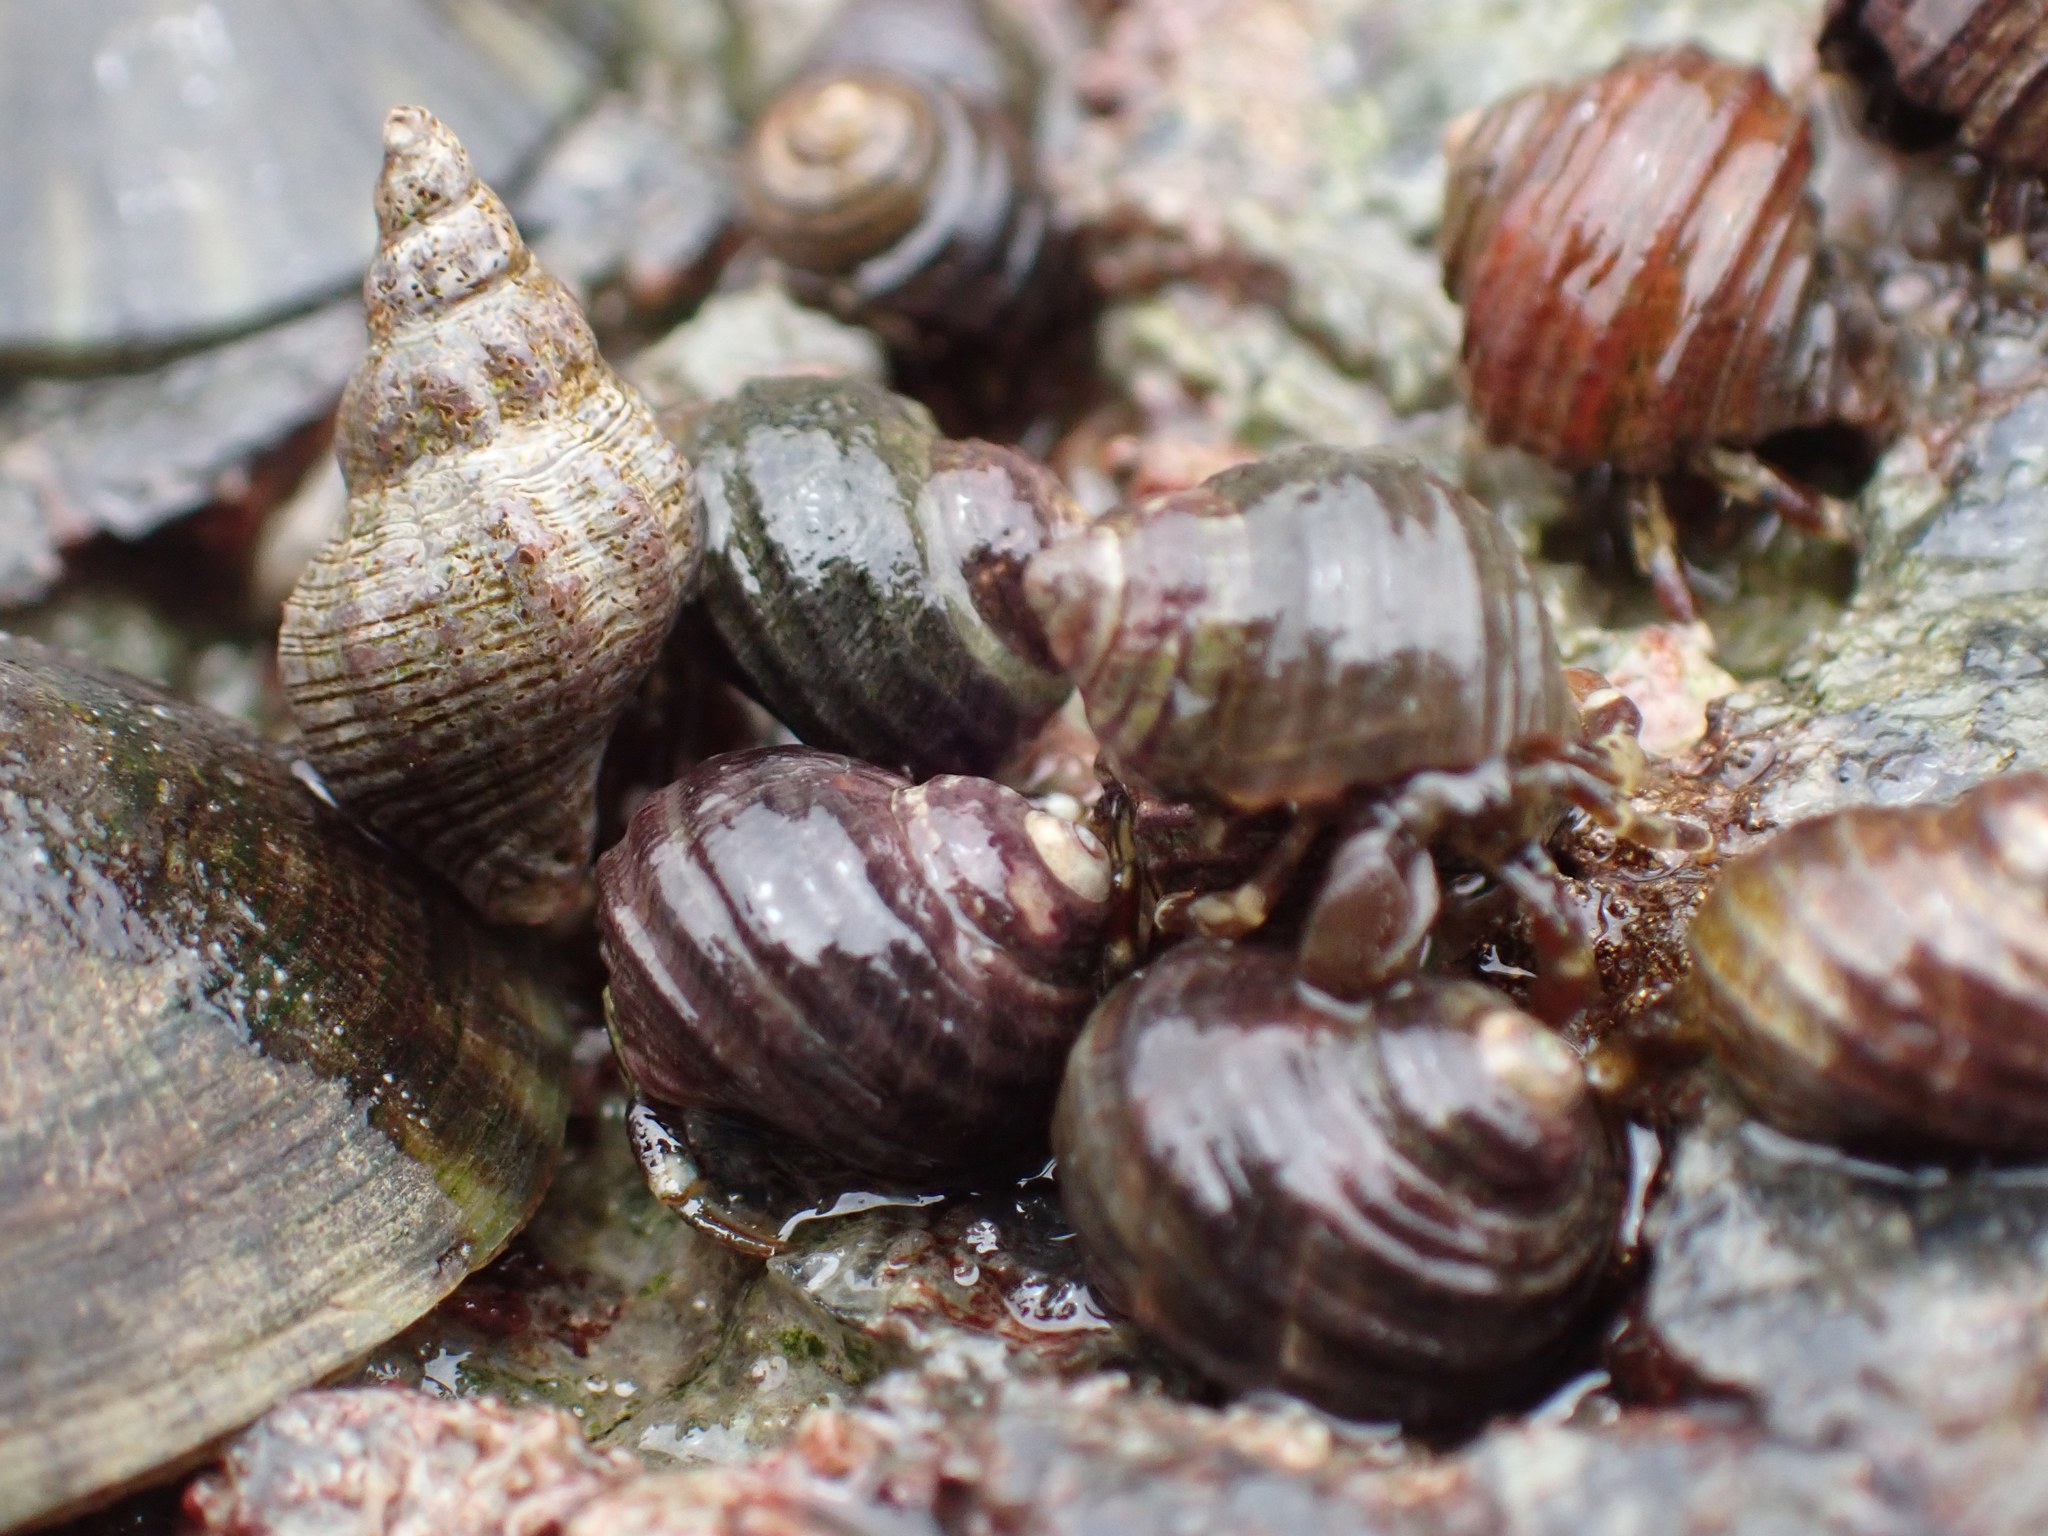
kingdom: Animalia
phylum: Mollusca
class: Gastropoda
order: Littorinimorpha
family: Littorinidae
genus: Littorina
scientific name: Littorina sitkana
